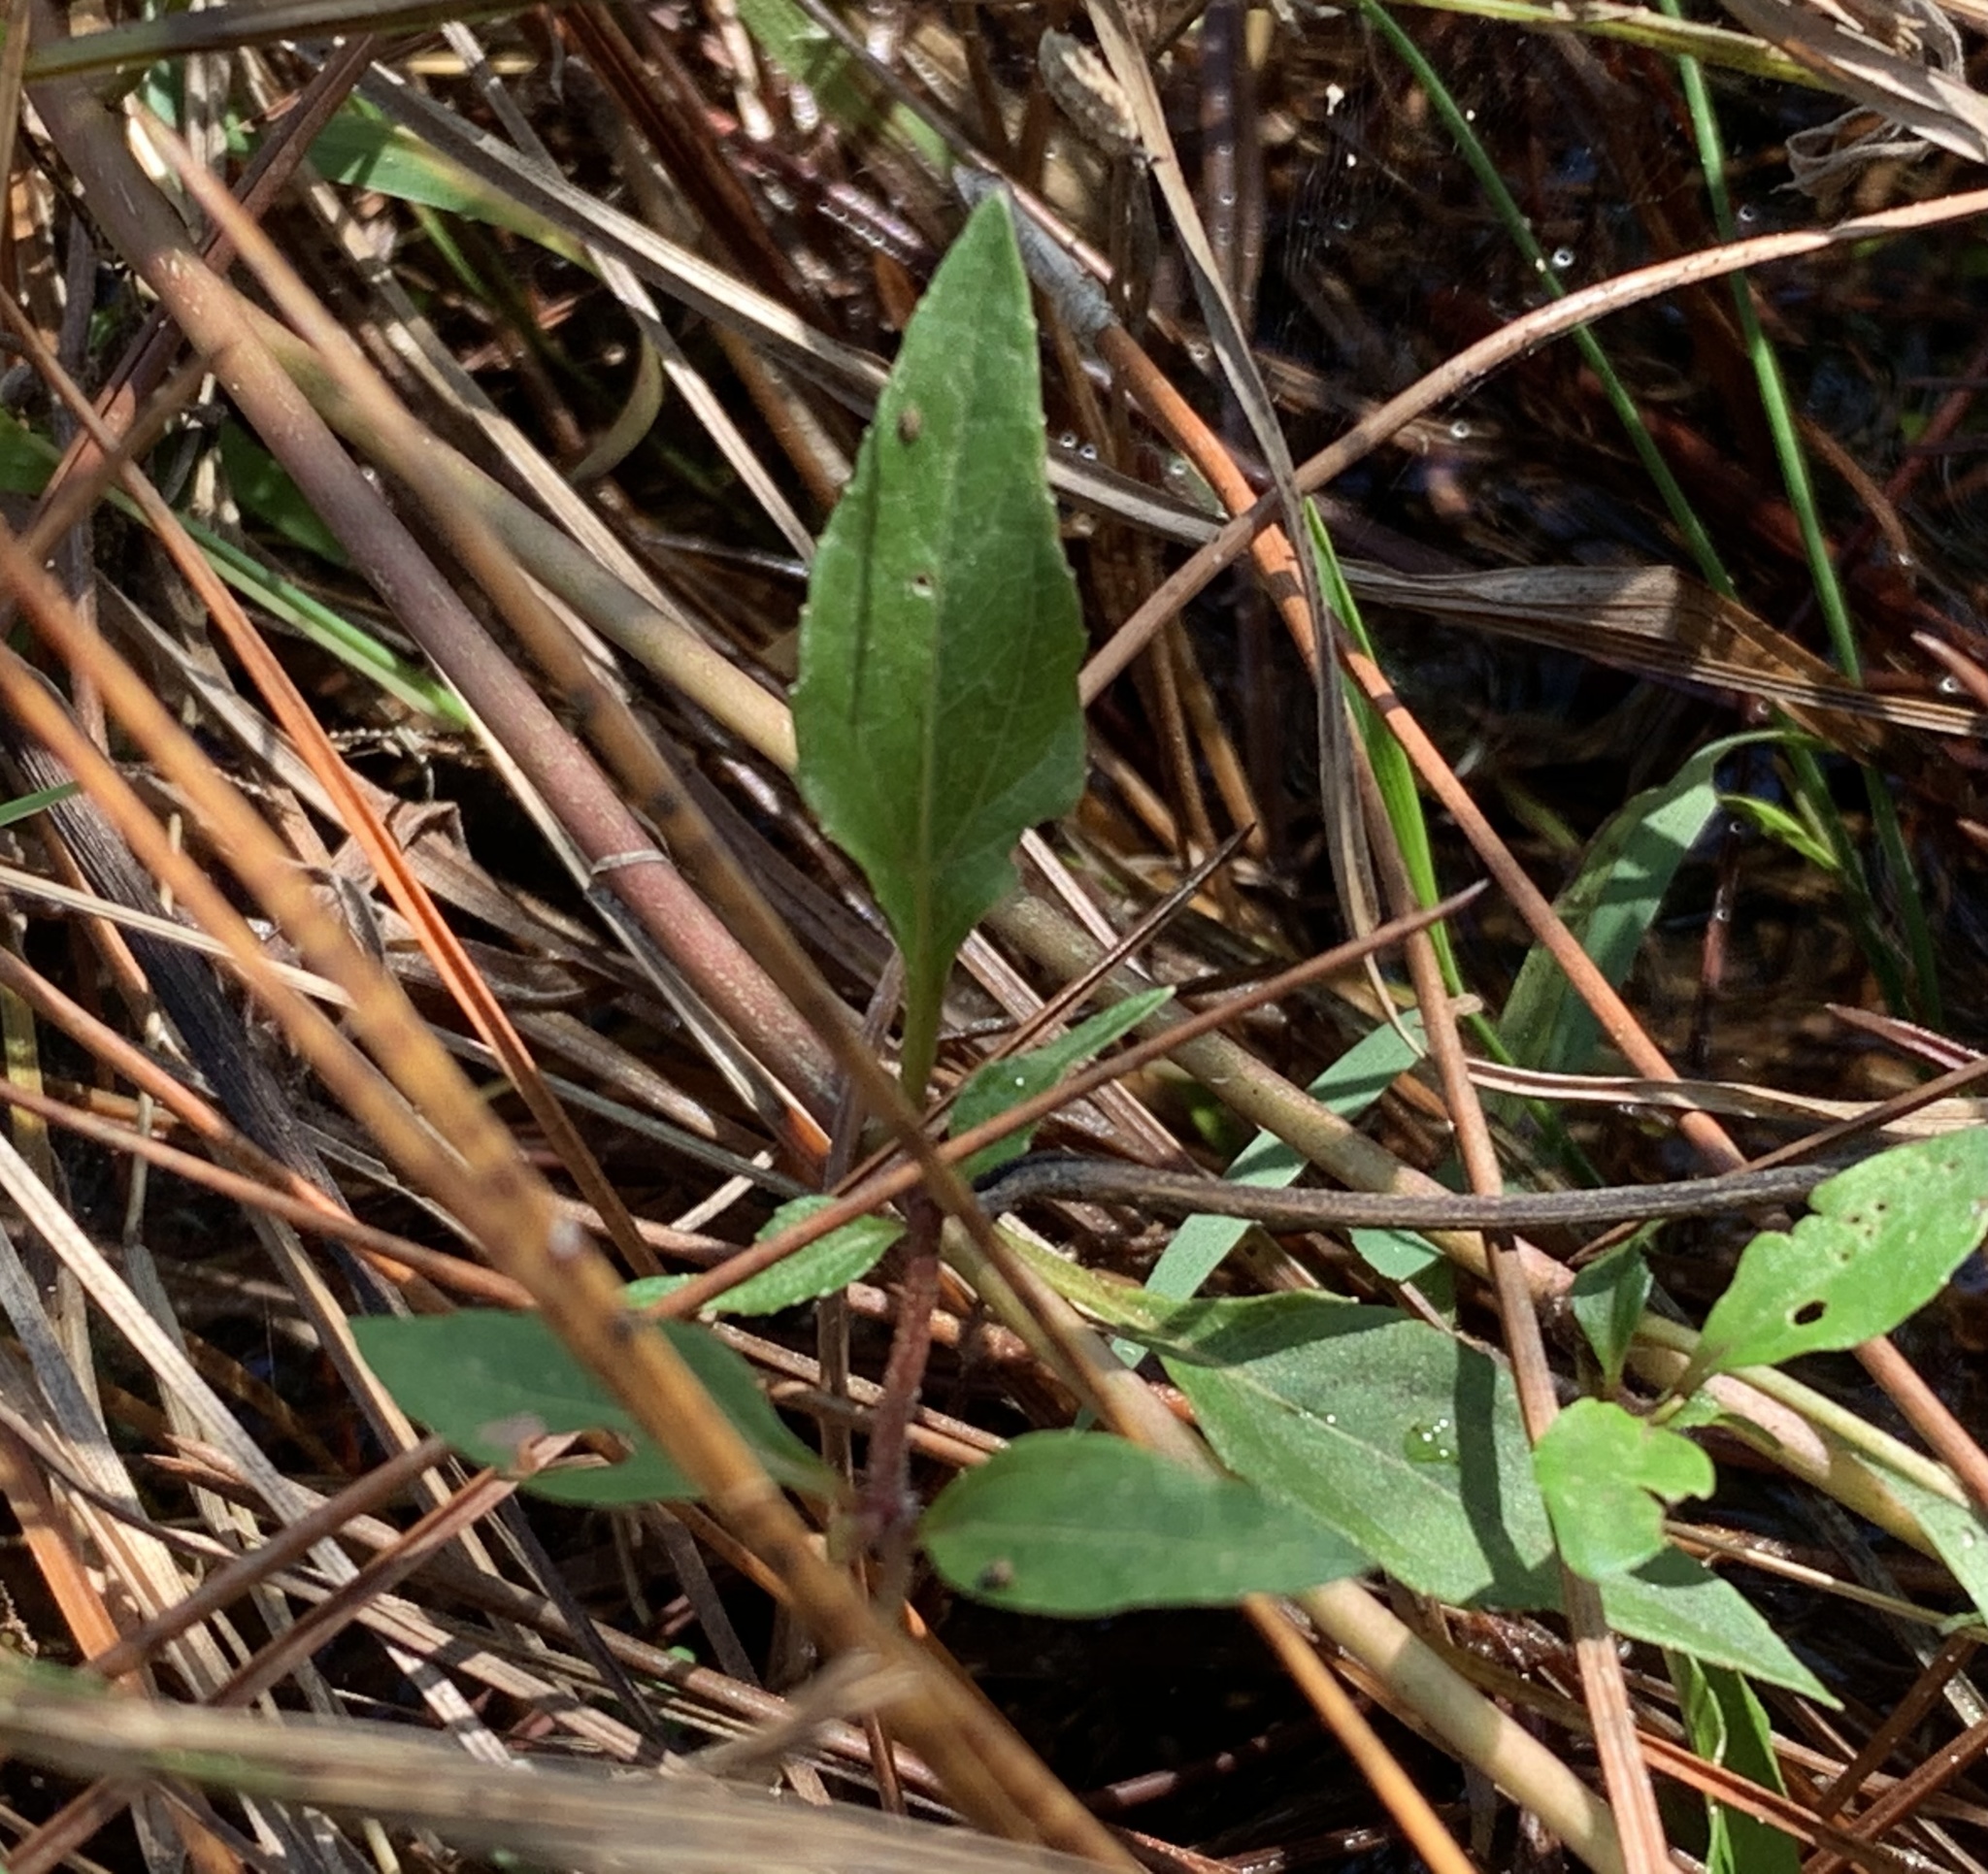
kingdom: Plantae
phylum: Tracheophyta
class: Magnoliopsida
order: Asterales
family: Asteraceae
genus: Acmella
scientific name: Acmella repens
